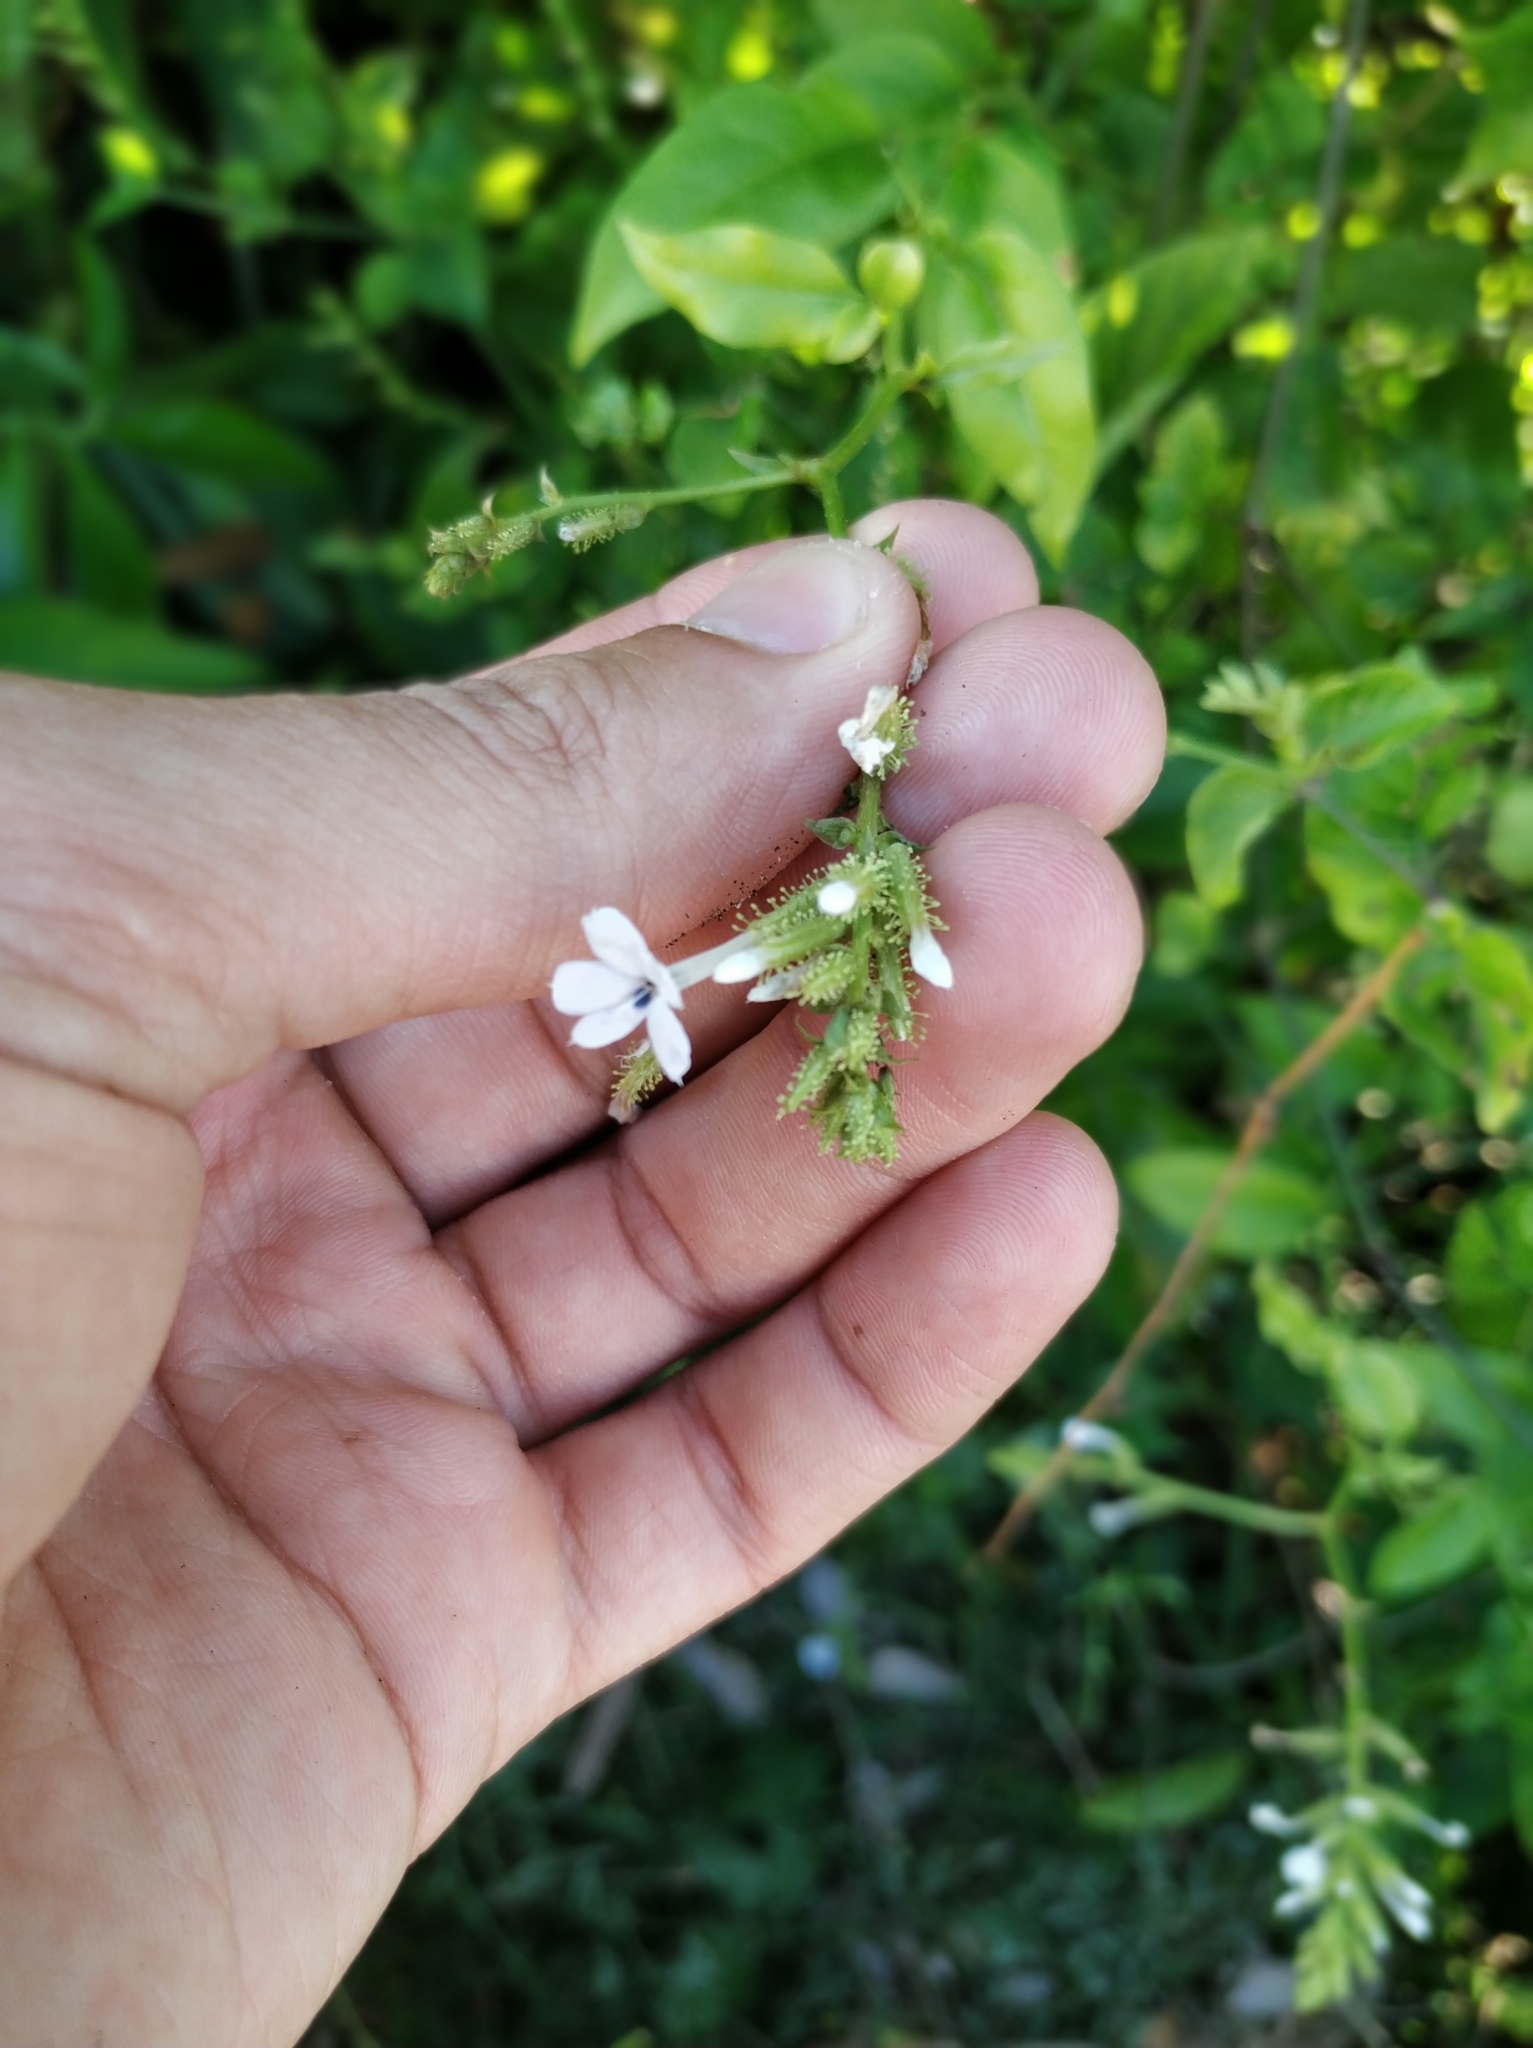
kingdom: Plantae
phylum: Tracheophyta
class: Magnoliopsida
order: Caryophyllales
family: Plumbaginaceae
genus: Plumbago
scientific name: Plumbago zeylanica
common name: Doctorbush
